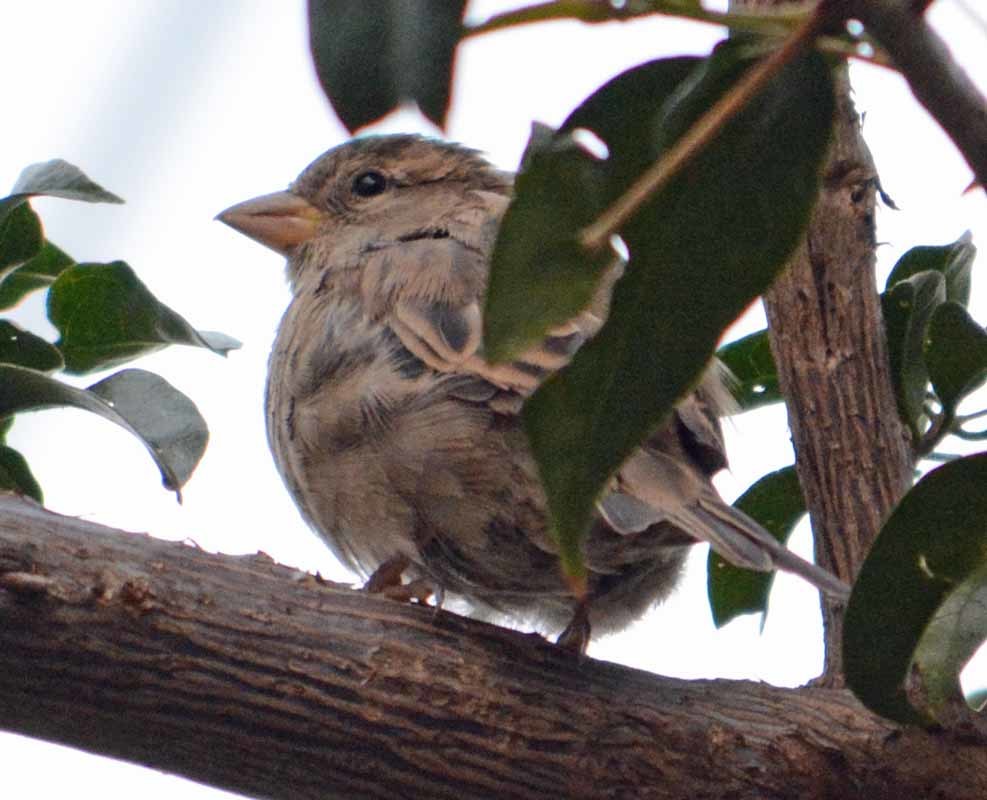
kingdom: Animalia
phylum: Chordata
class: Aves
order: Passeriformes
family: Passeridae
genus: Passer
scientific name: Passer domesticus
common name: House sparrow
